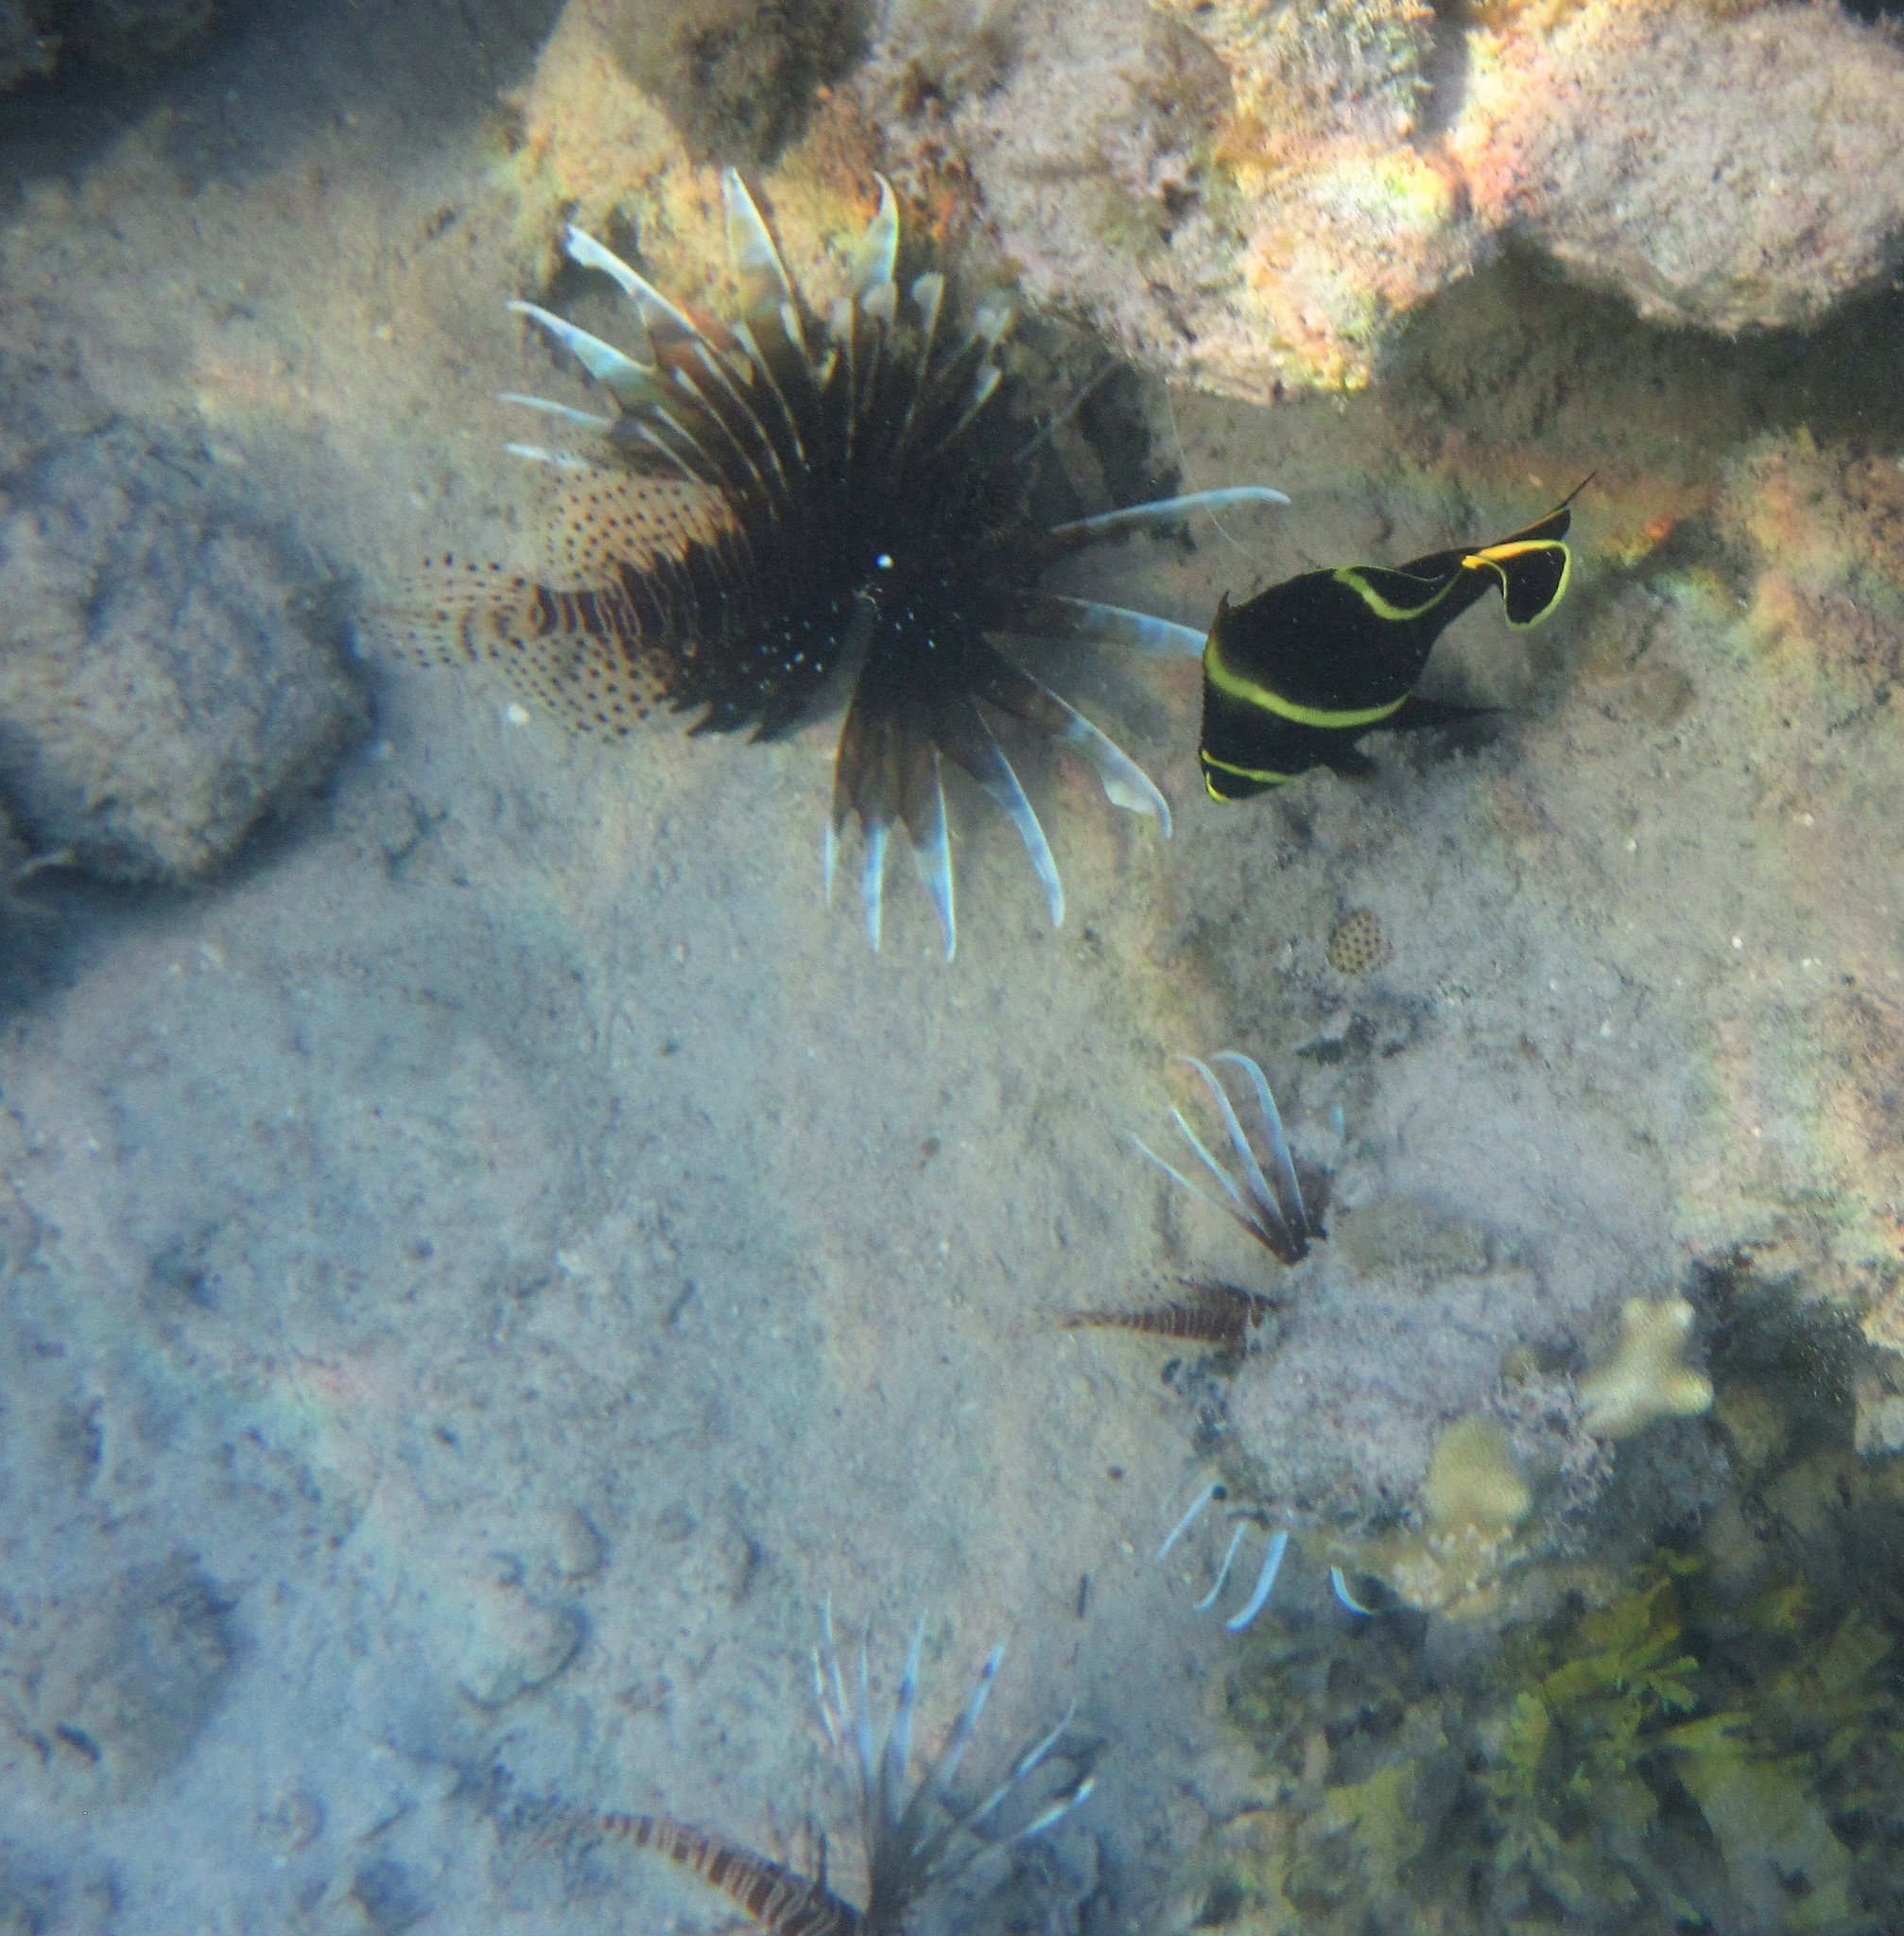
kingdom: Animalia
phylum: Chordata
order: Perciformes
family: Pomacanthidae
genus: Pomacanthus
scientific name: Pomacanthus paru
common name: French angelfish
